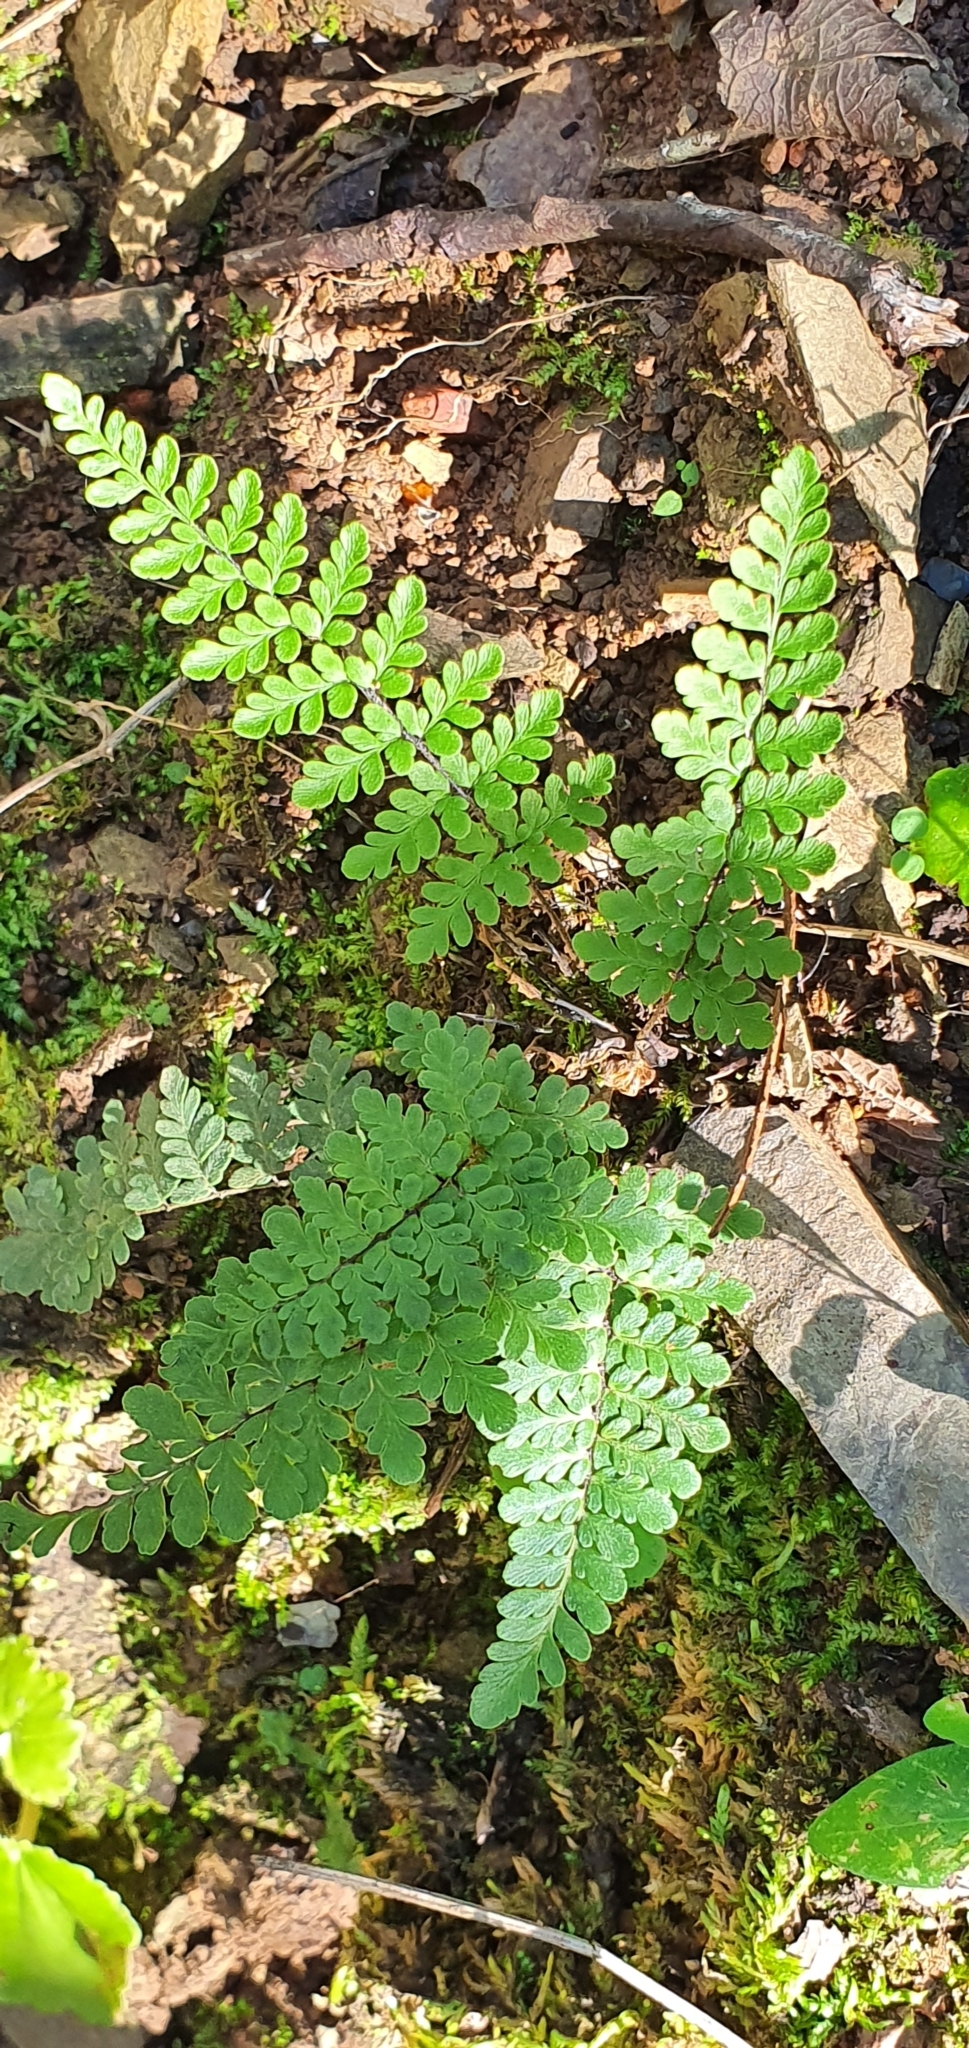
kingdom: Plantae
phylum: Tracheophyta
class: Polypodiopsida
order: Polypodiales
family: Pteridaceae
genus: Myriopteris
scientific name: Myriopteris alabamensis
